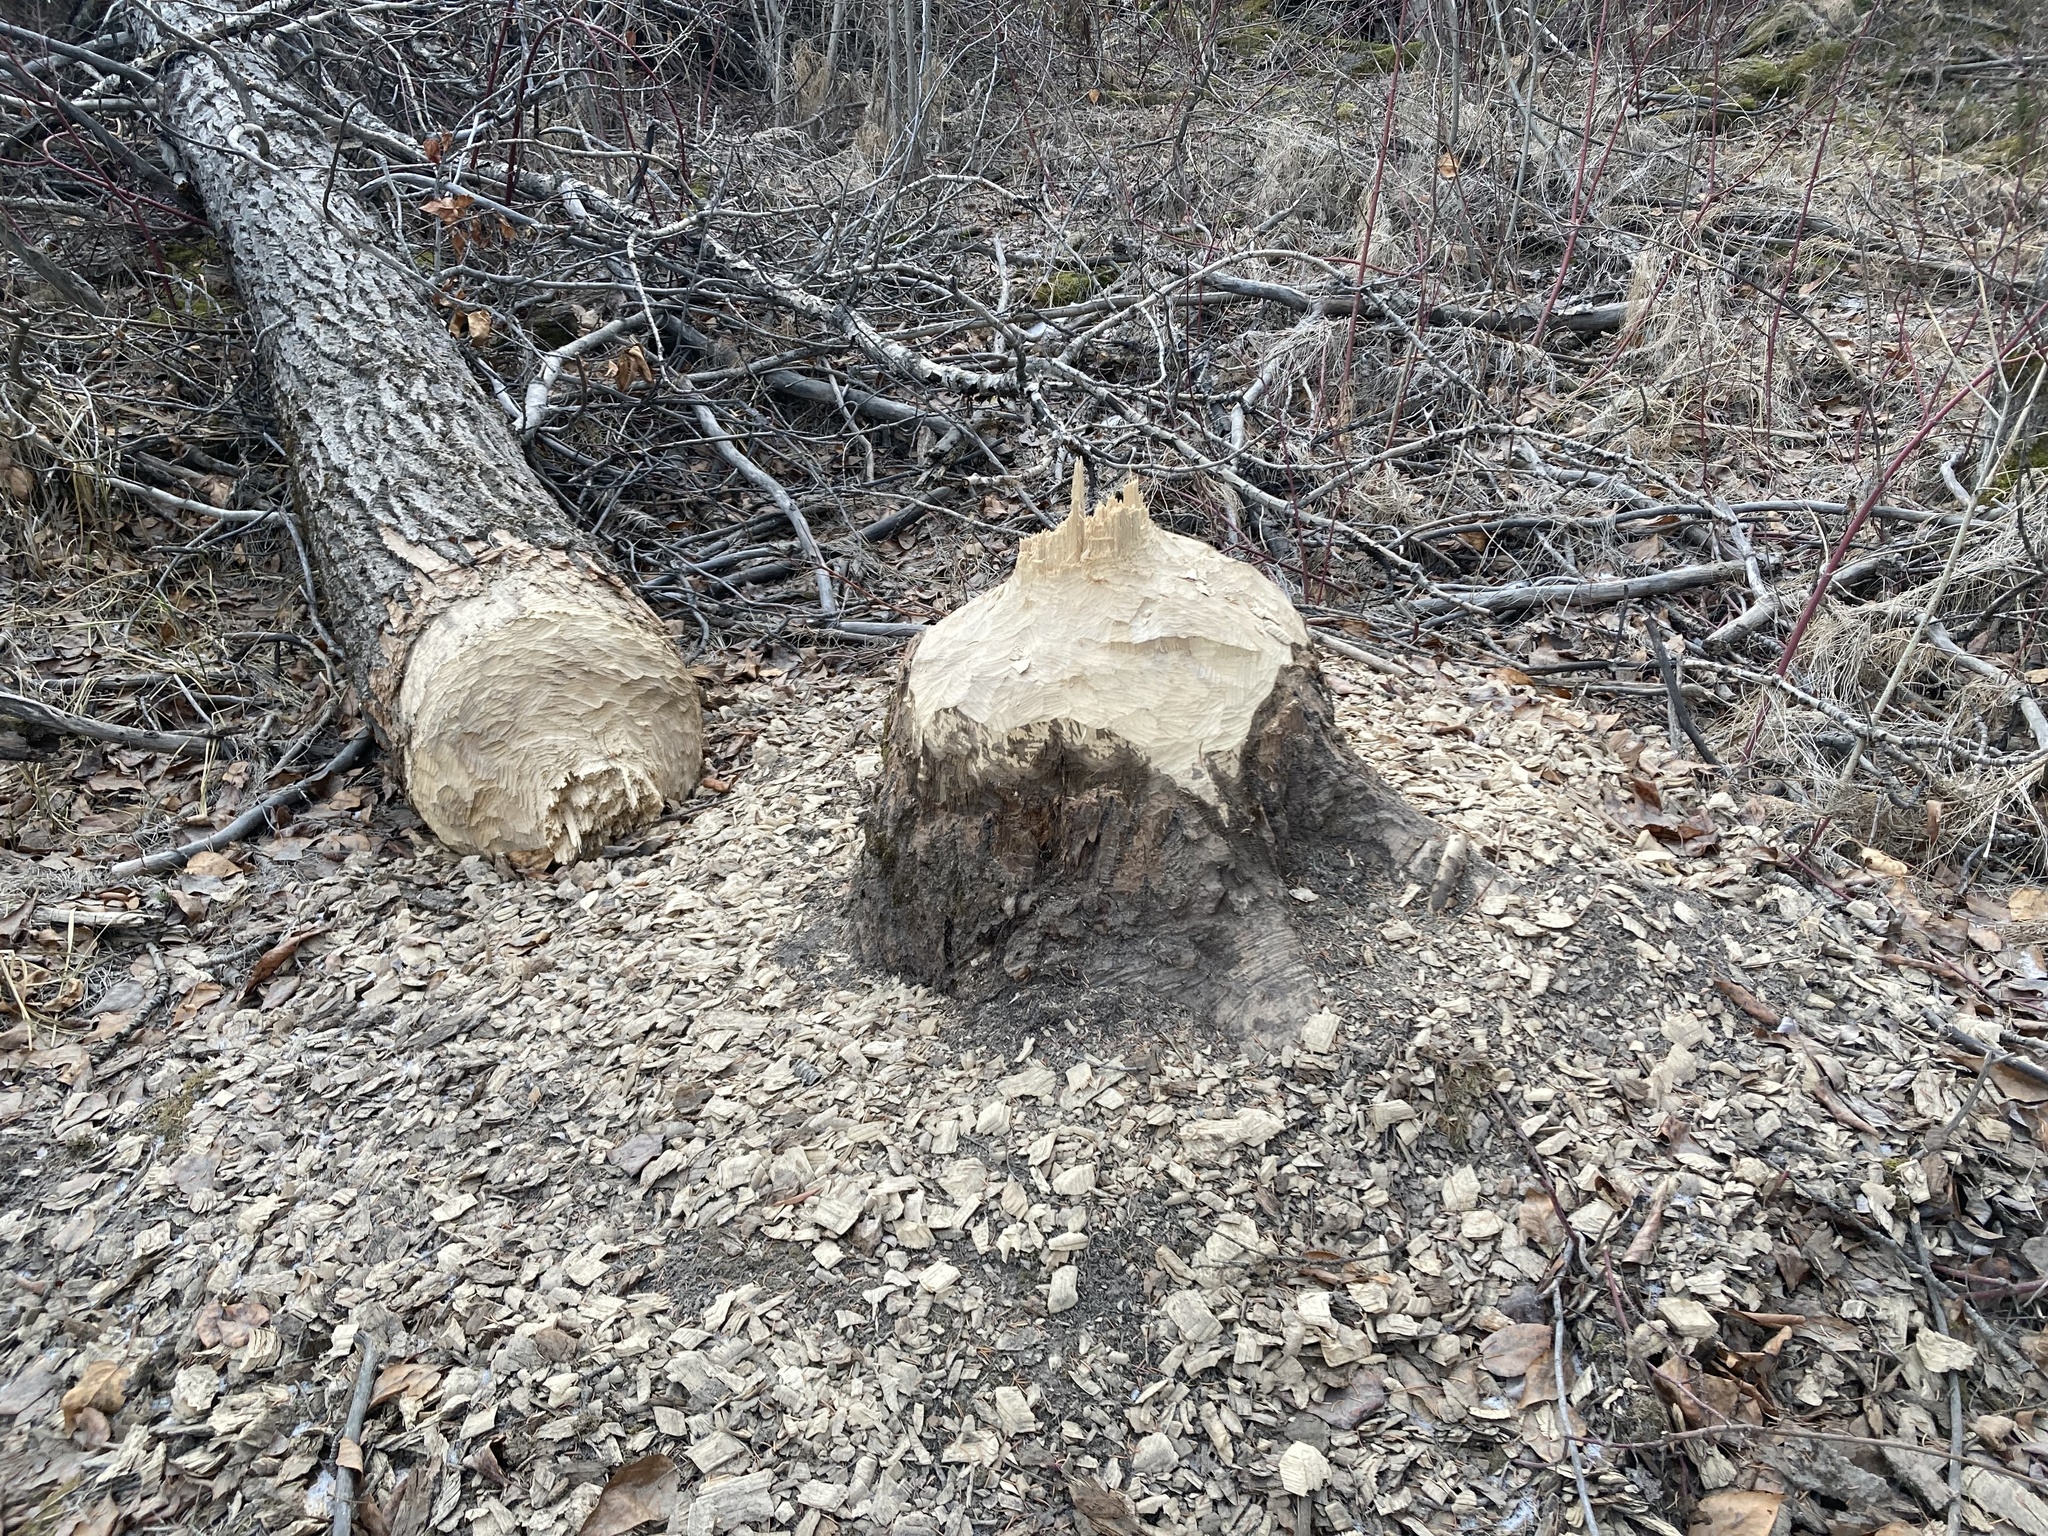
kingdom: Animalia
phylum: Chordata
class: Mammalia
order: Rodentia
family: Castoridae
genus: Castor
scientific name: Castor canadensis
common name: American beaver
